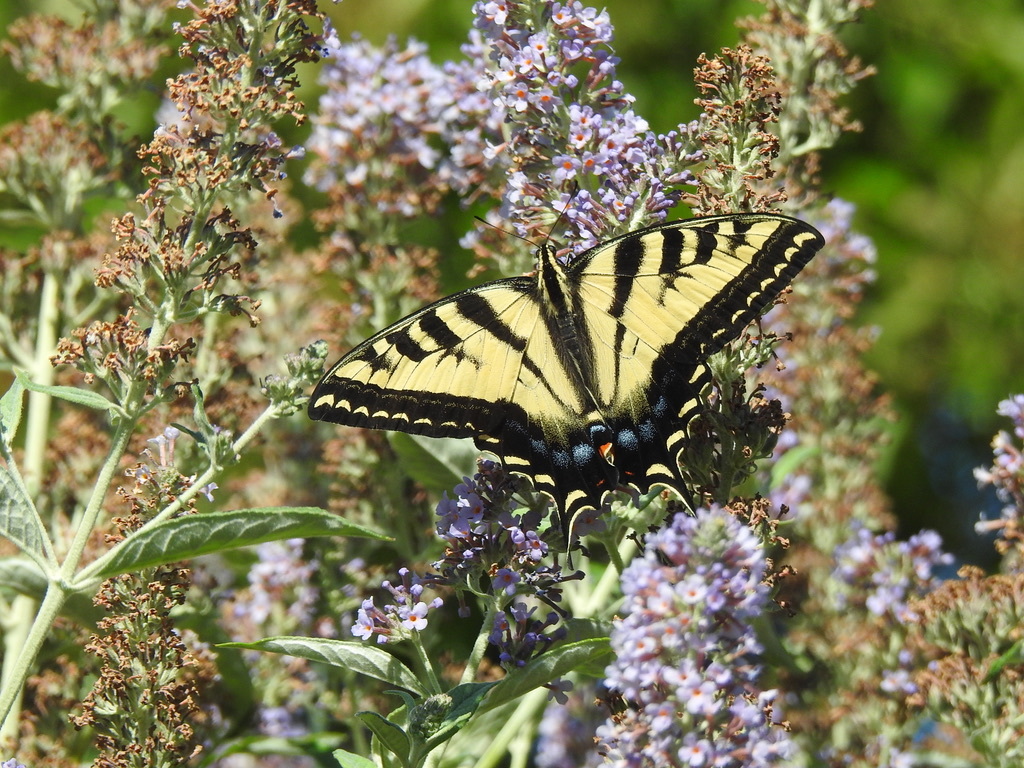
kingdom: Animalia
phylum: Arthropoda
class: Insecta
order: Lepidoptera
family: Papilionidae
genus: Papilio
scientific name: Papilio rutulus
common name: Western tiger swallowtail
